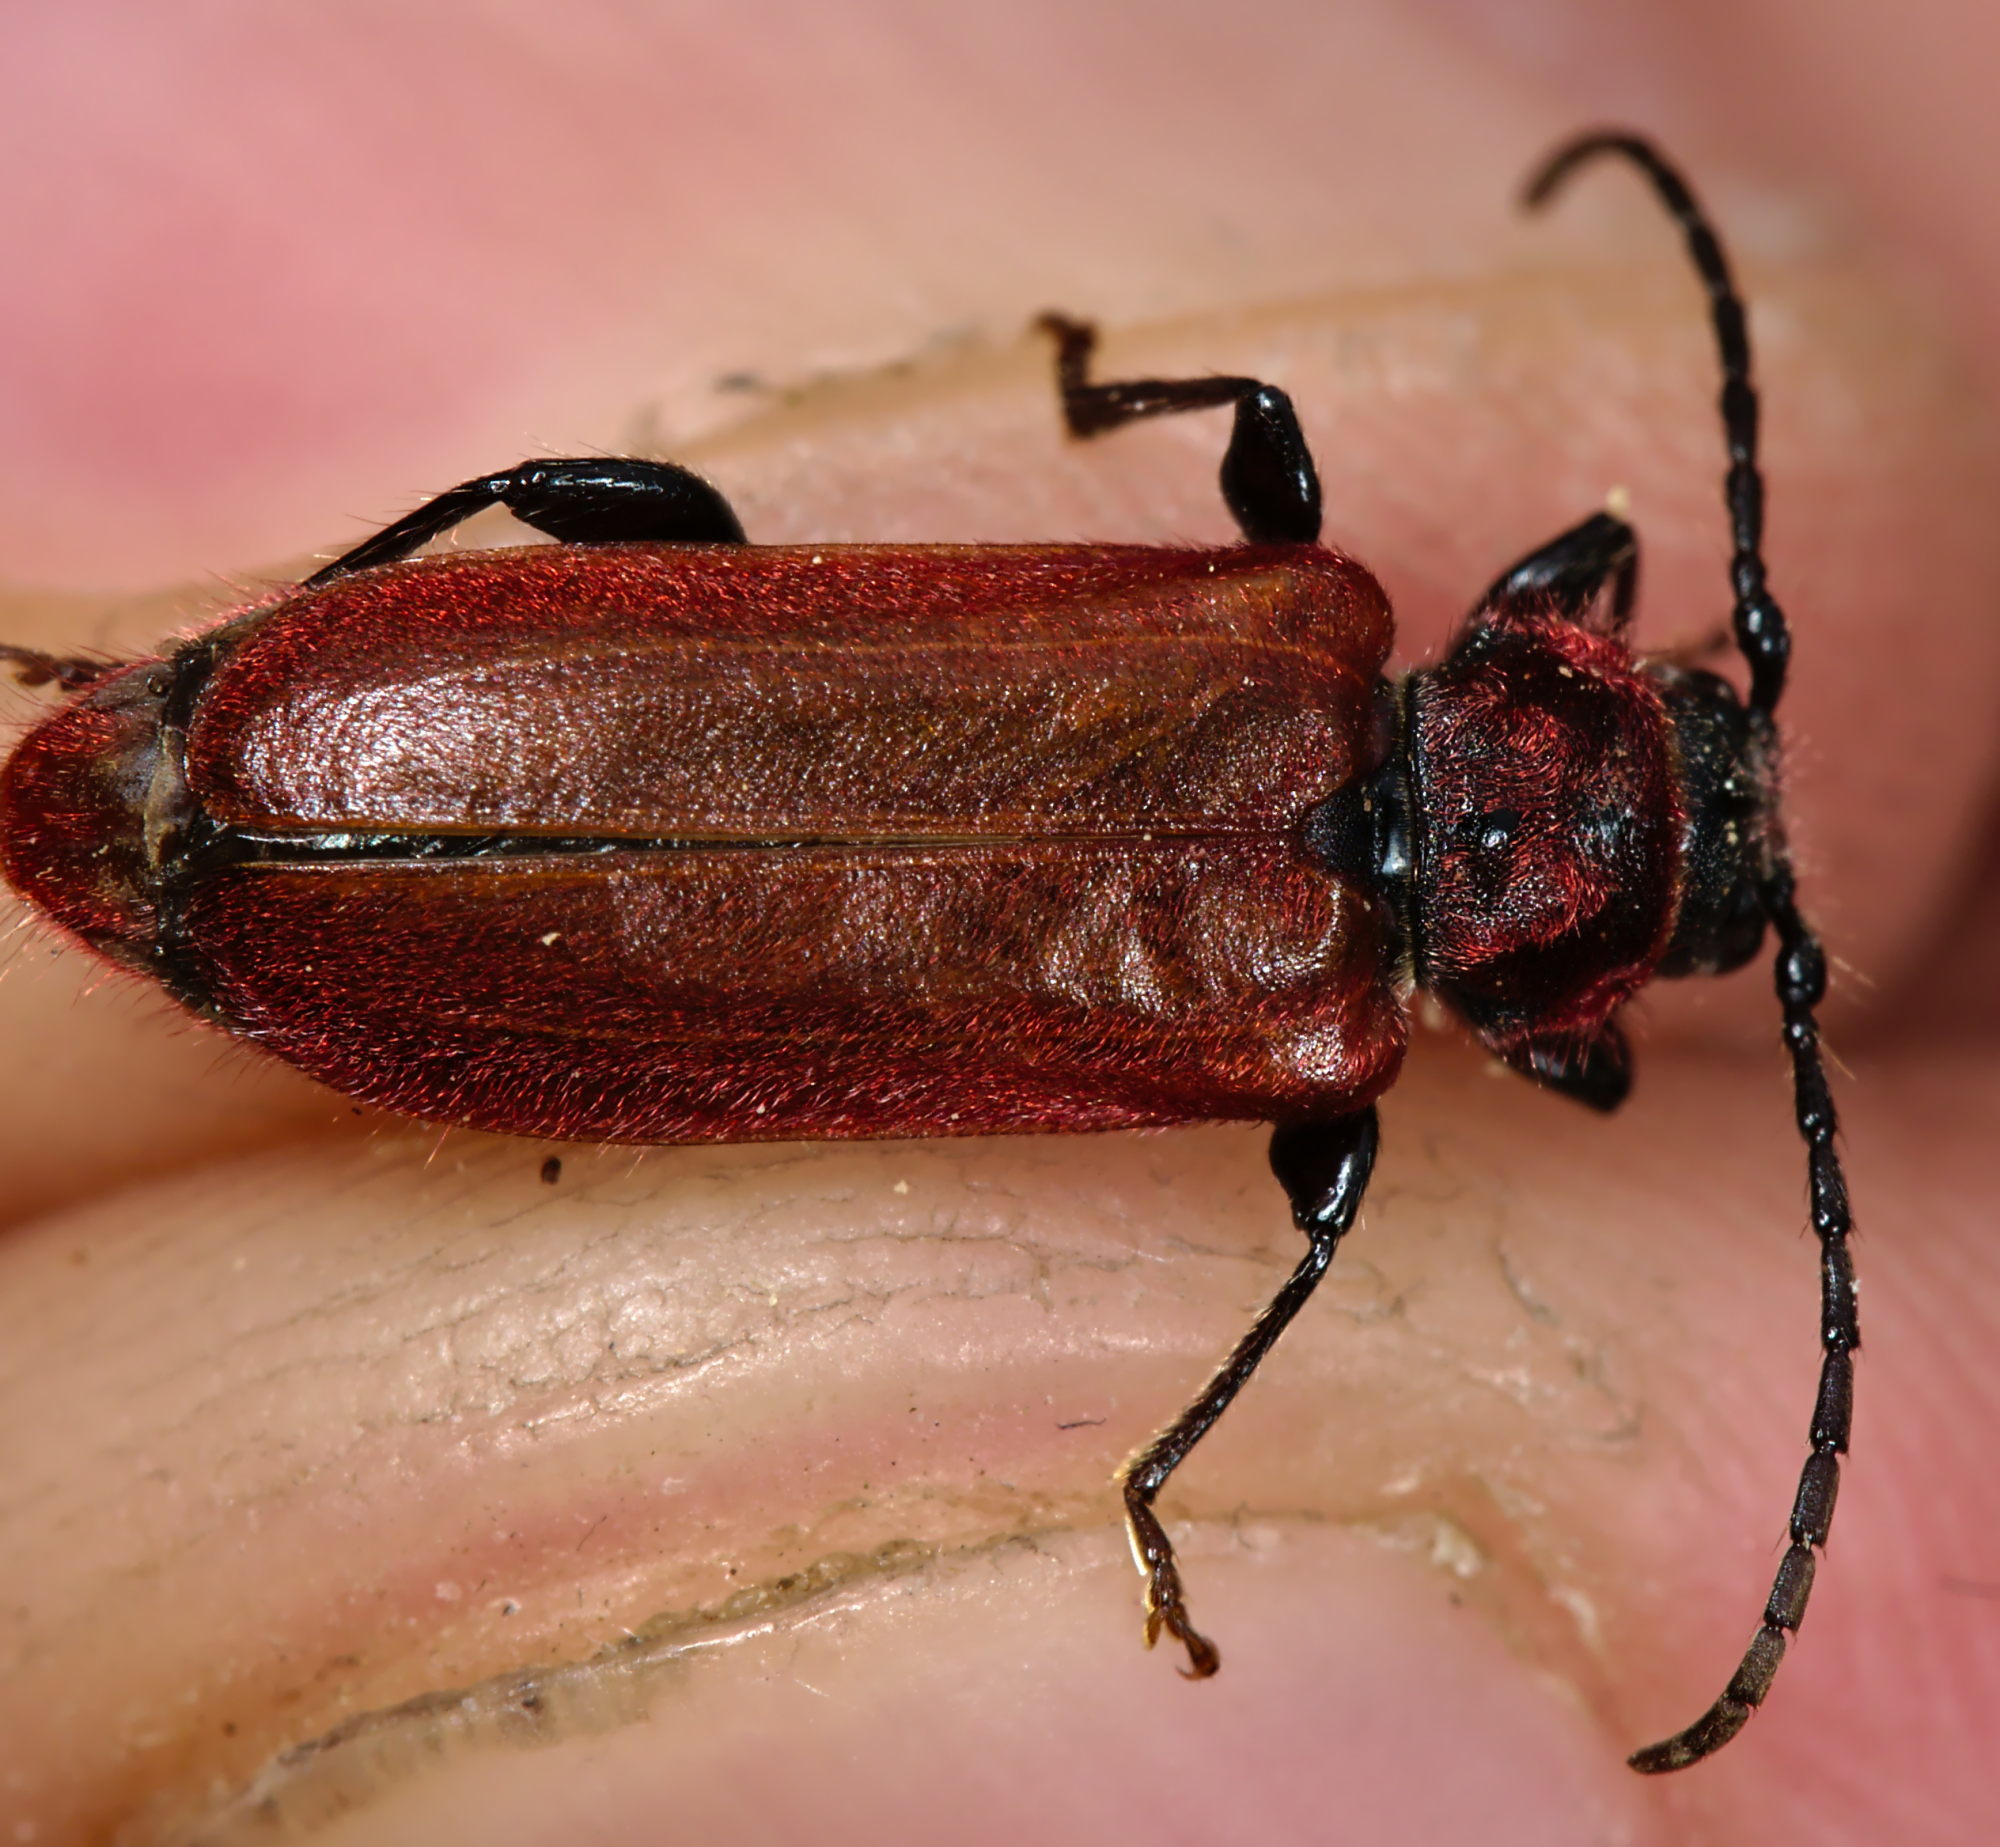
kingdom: Animalia
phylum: Arthropoda
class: Insecta
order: Coleoptera
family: Cerambycidae
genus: Pyrrhidium
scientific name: Pyrrhidium sanguineum
